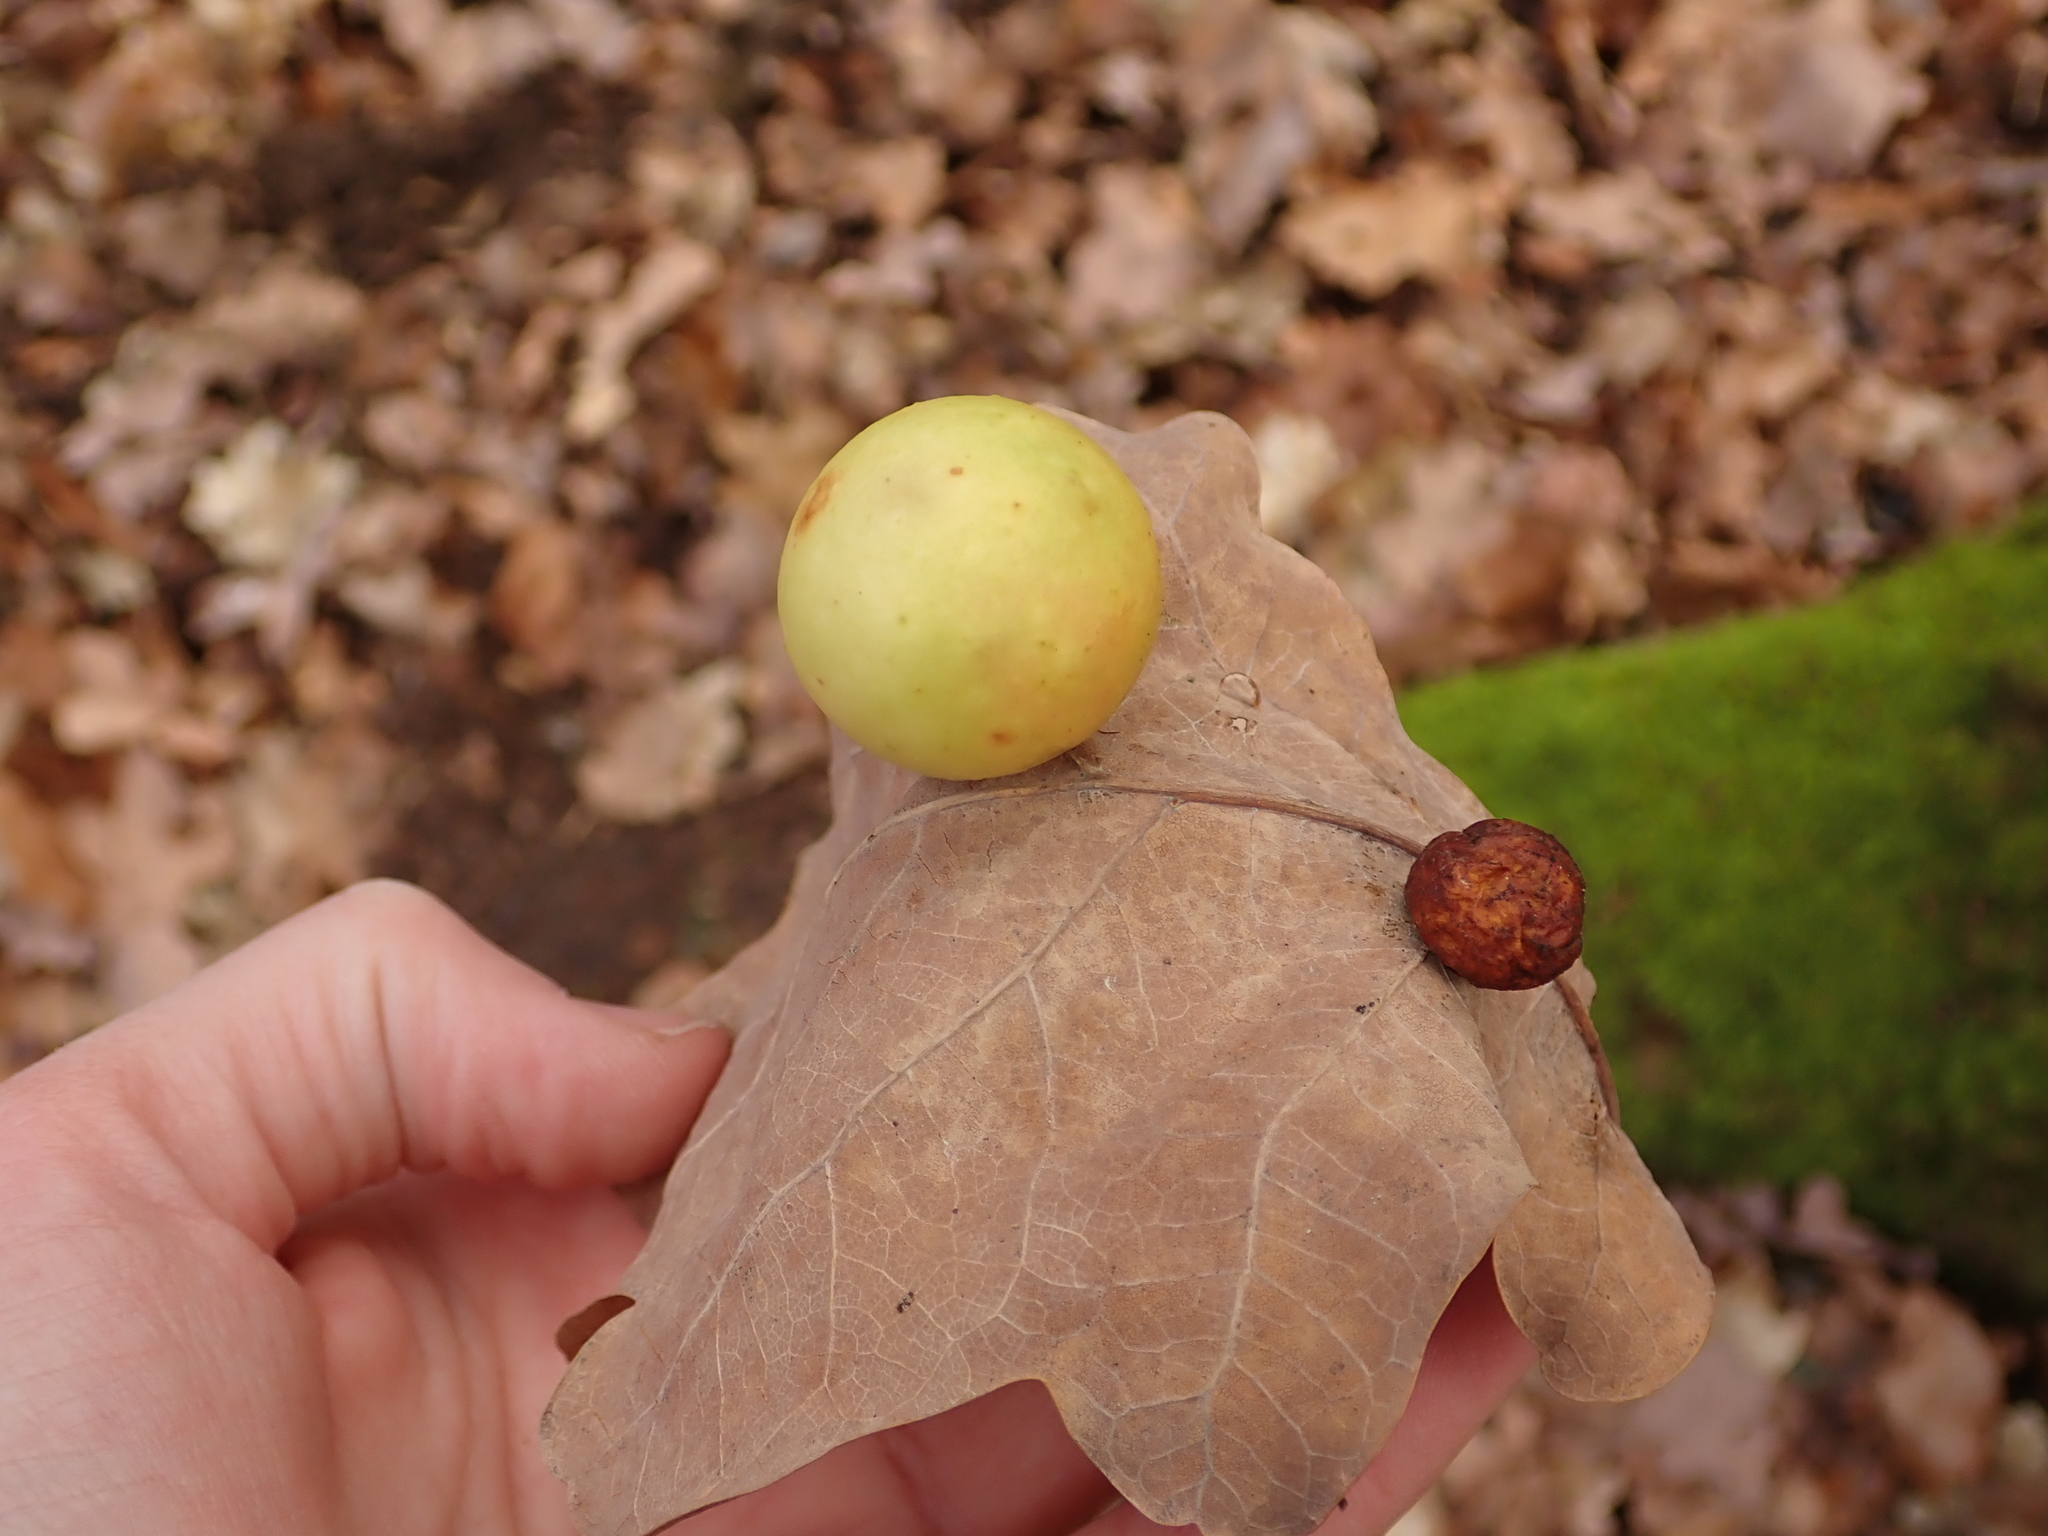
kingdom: Animalia
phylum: Arthropoda
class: Insecta
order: Hymenoptera
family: Cynipidae
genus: Cynips
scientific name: Cynips quercusfolii
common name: Cherry gall
